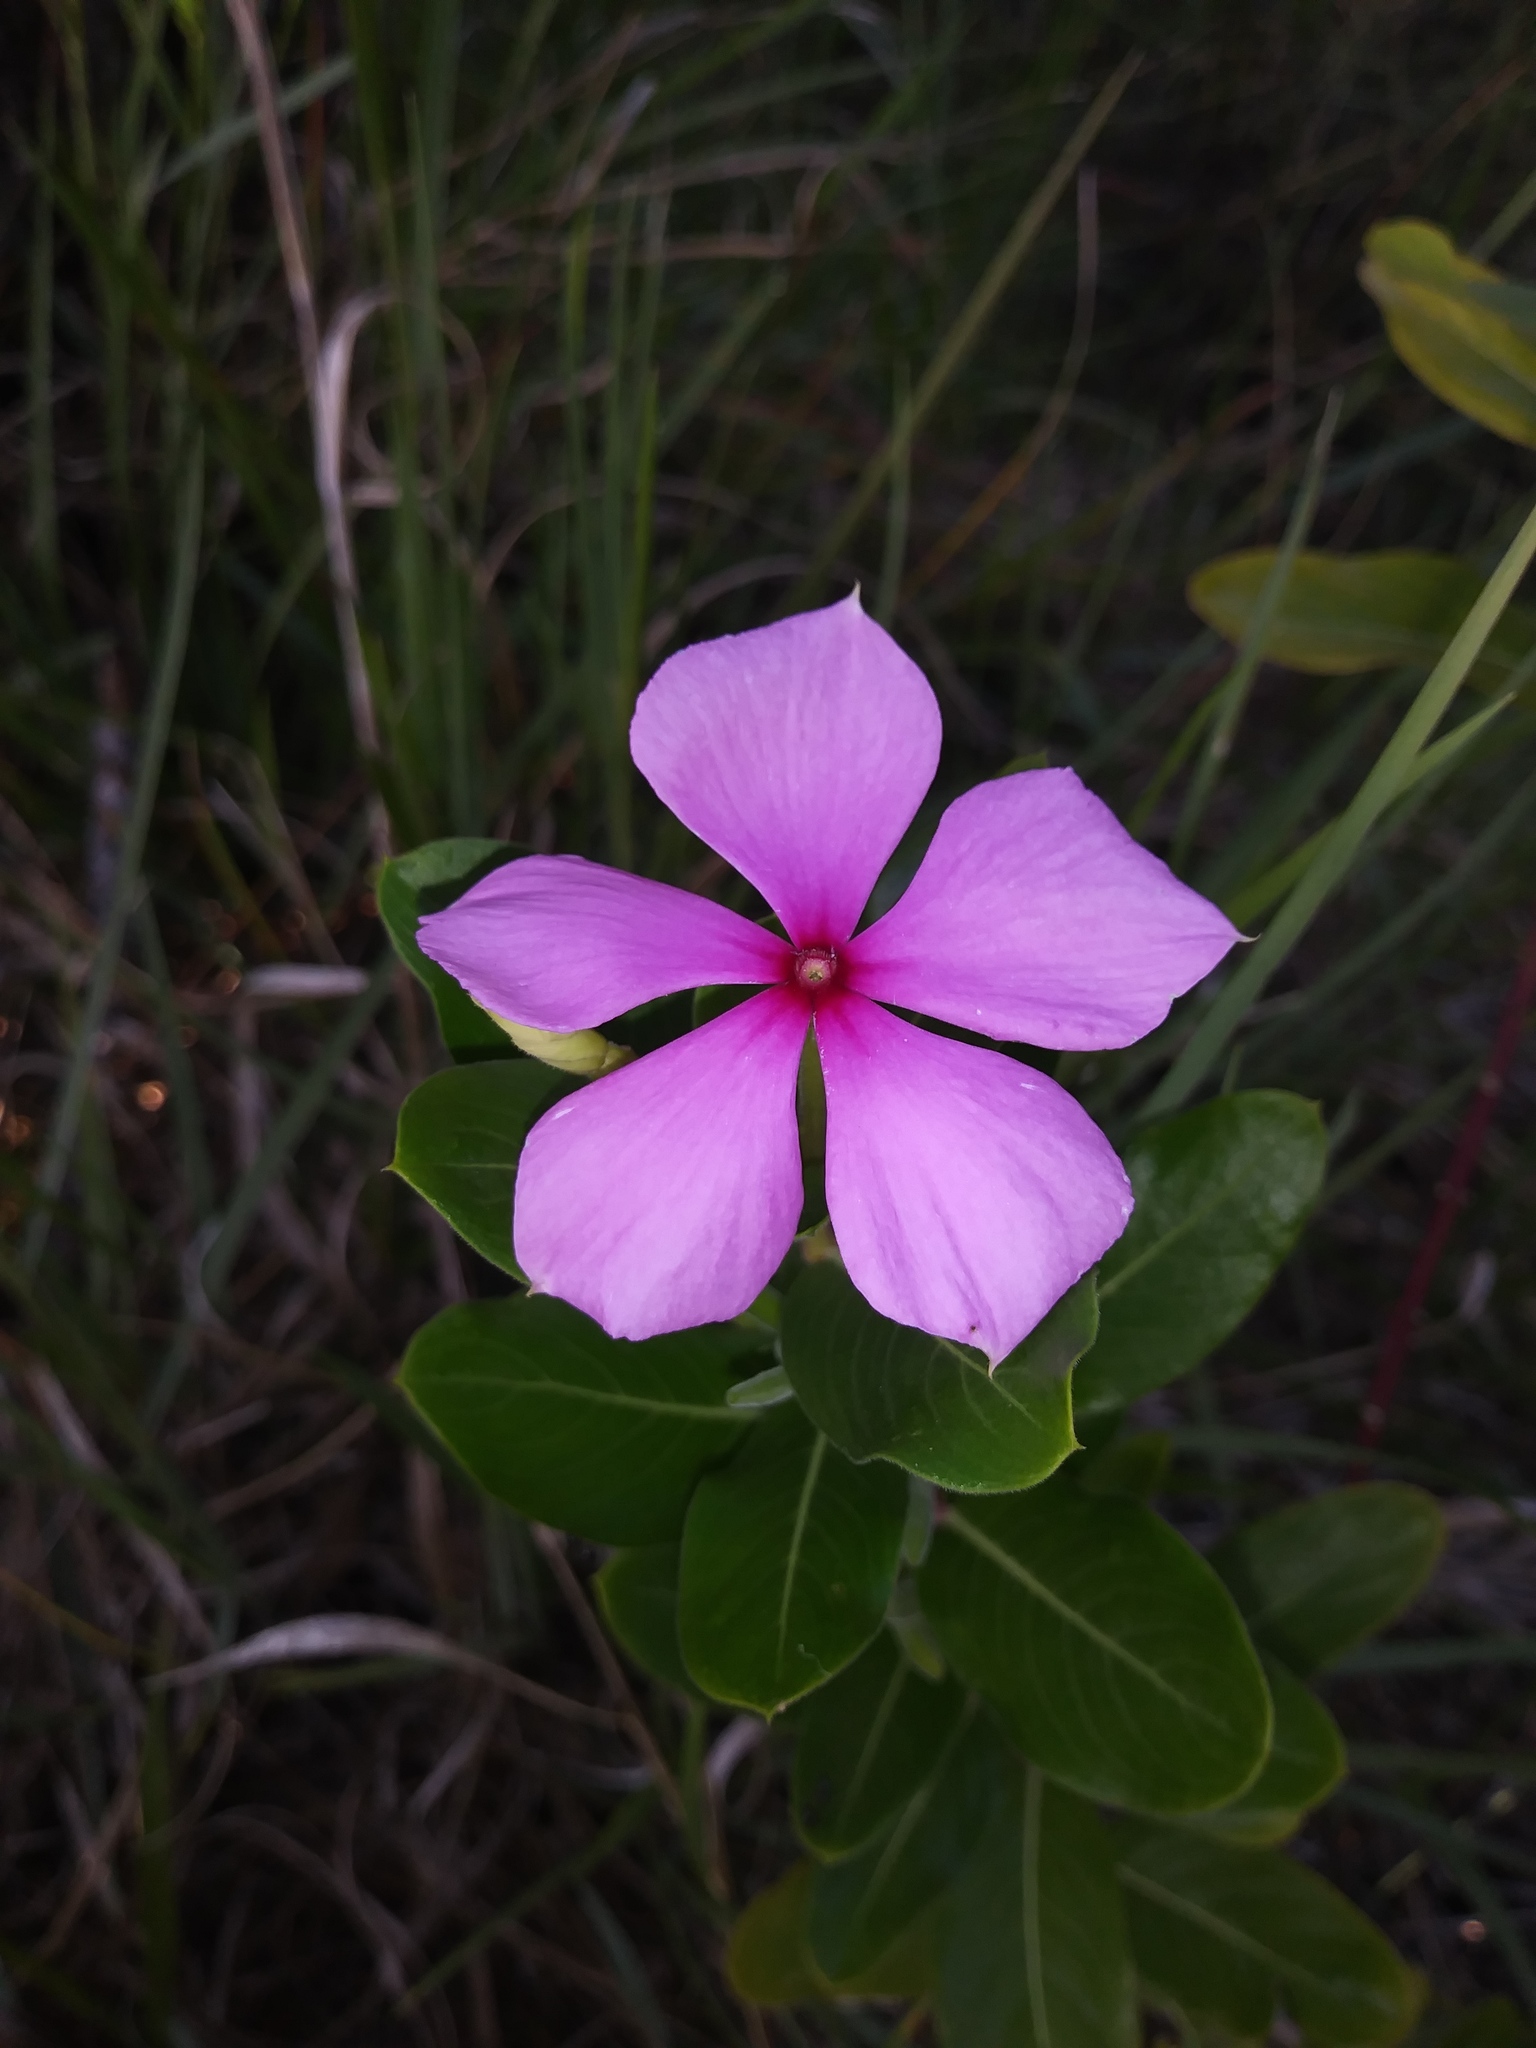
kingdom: Plantae
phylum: Tracheophyta
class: Magnoliopsida
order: Gentianales
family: Apocynaceae
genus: Catharanthus
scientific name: Catharanthus roseus
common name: Madagascar periwinkle
